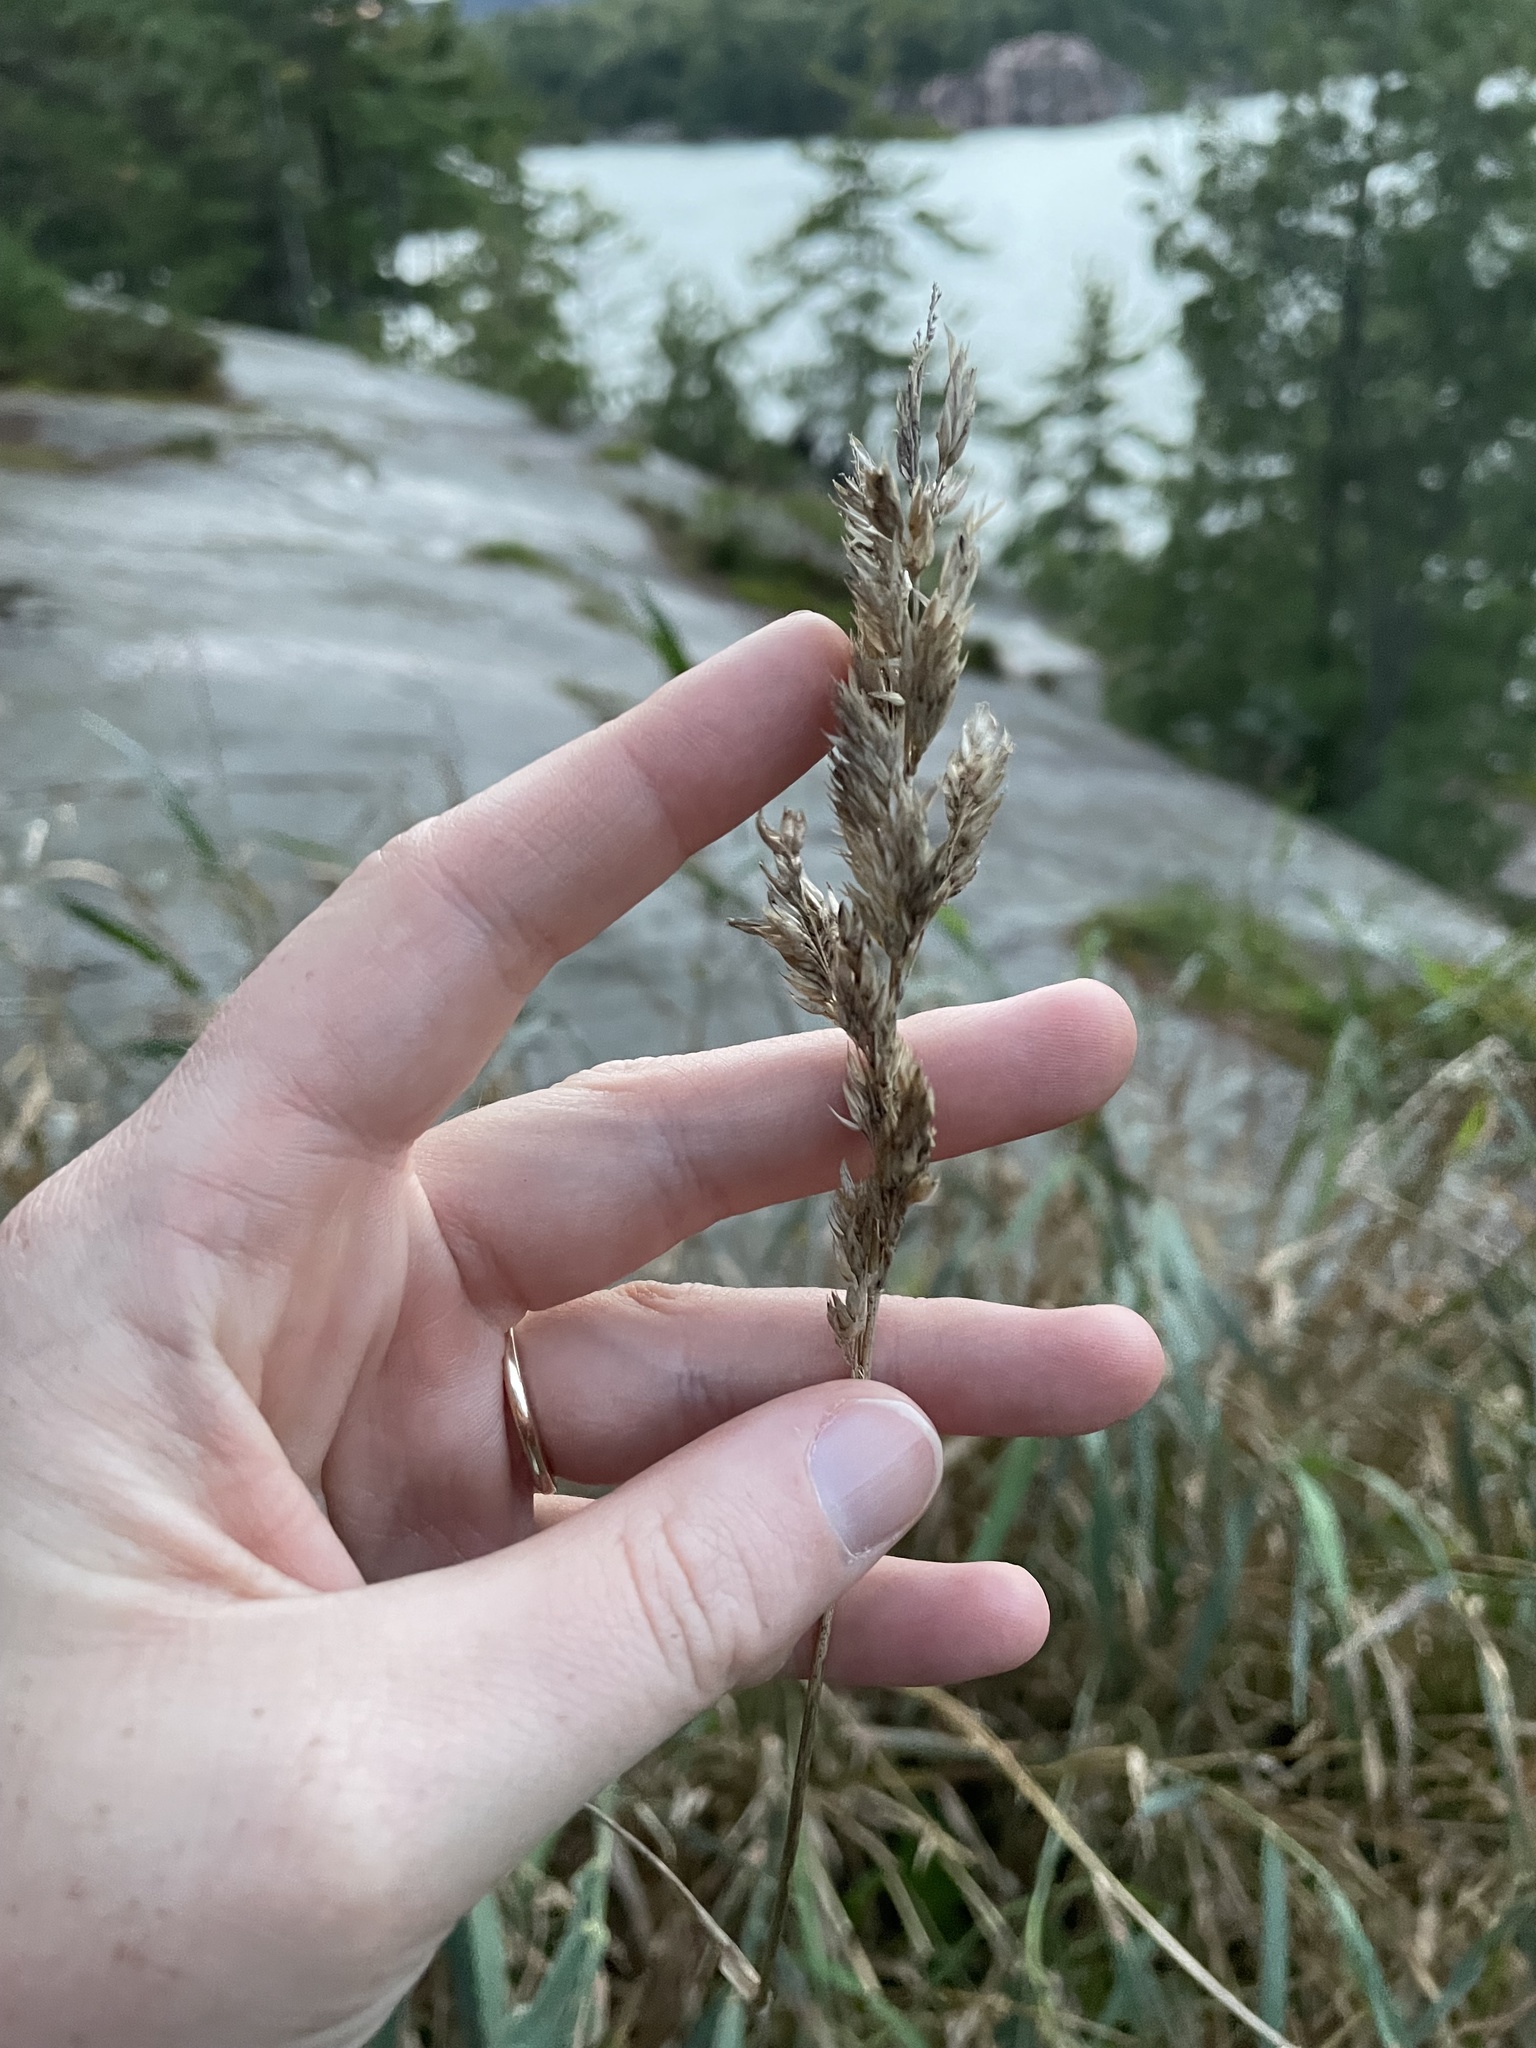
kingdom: Plantae
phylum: Tracheophyta
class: Liliopsida
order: Poales
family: Poaceae
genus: Phalaris
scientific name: Phalaris arundinacea
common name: Reed canary-grass
